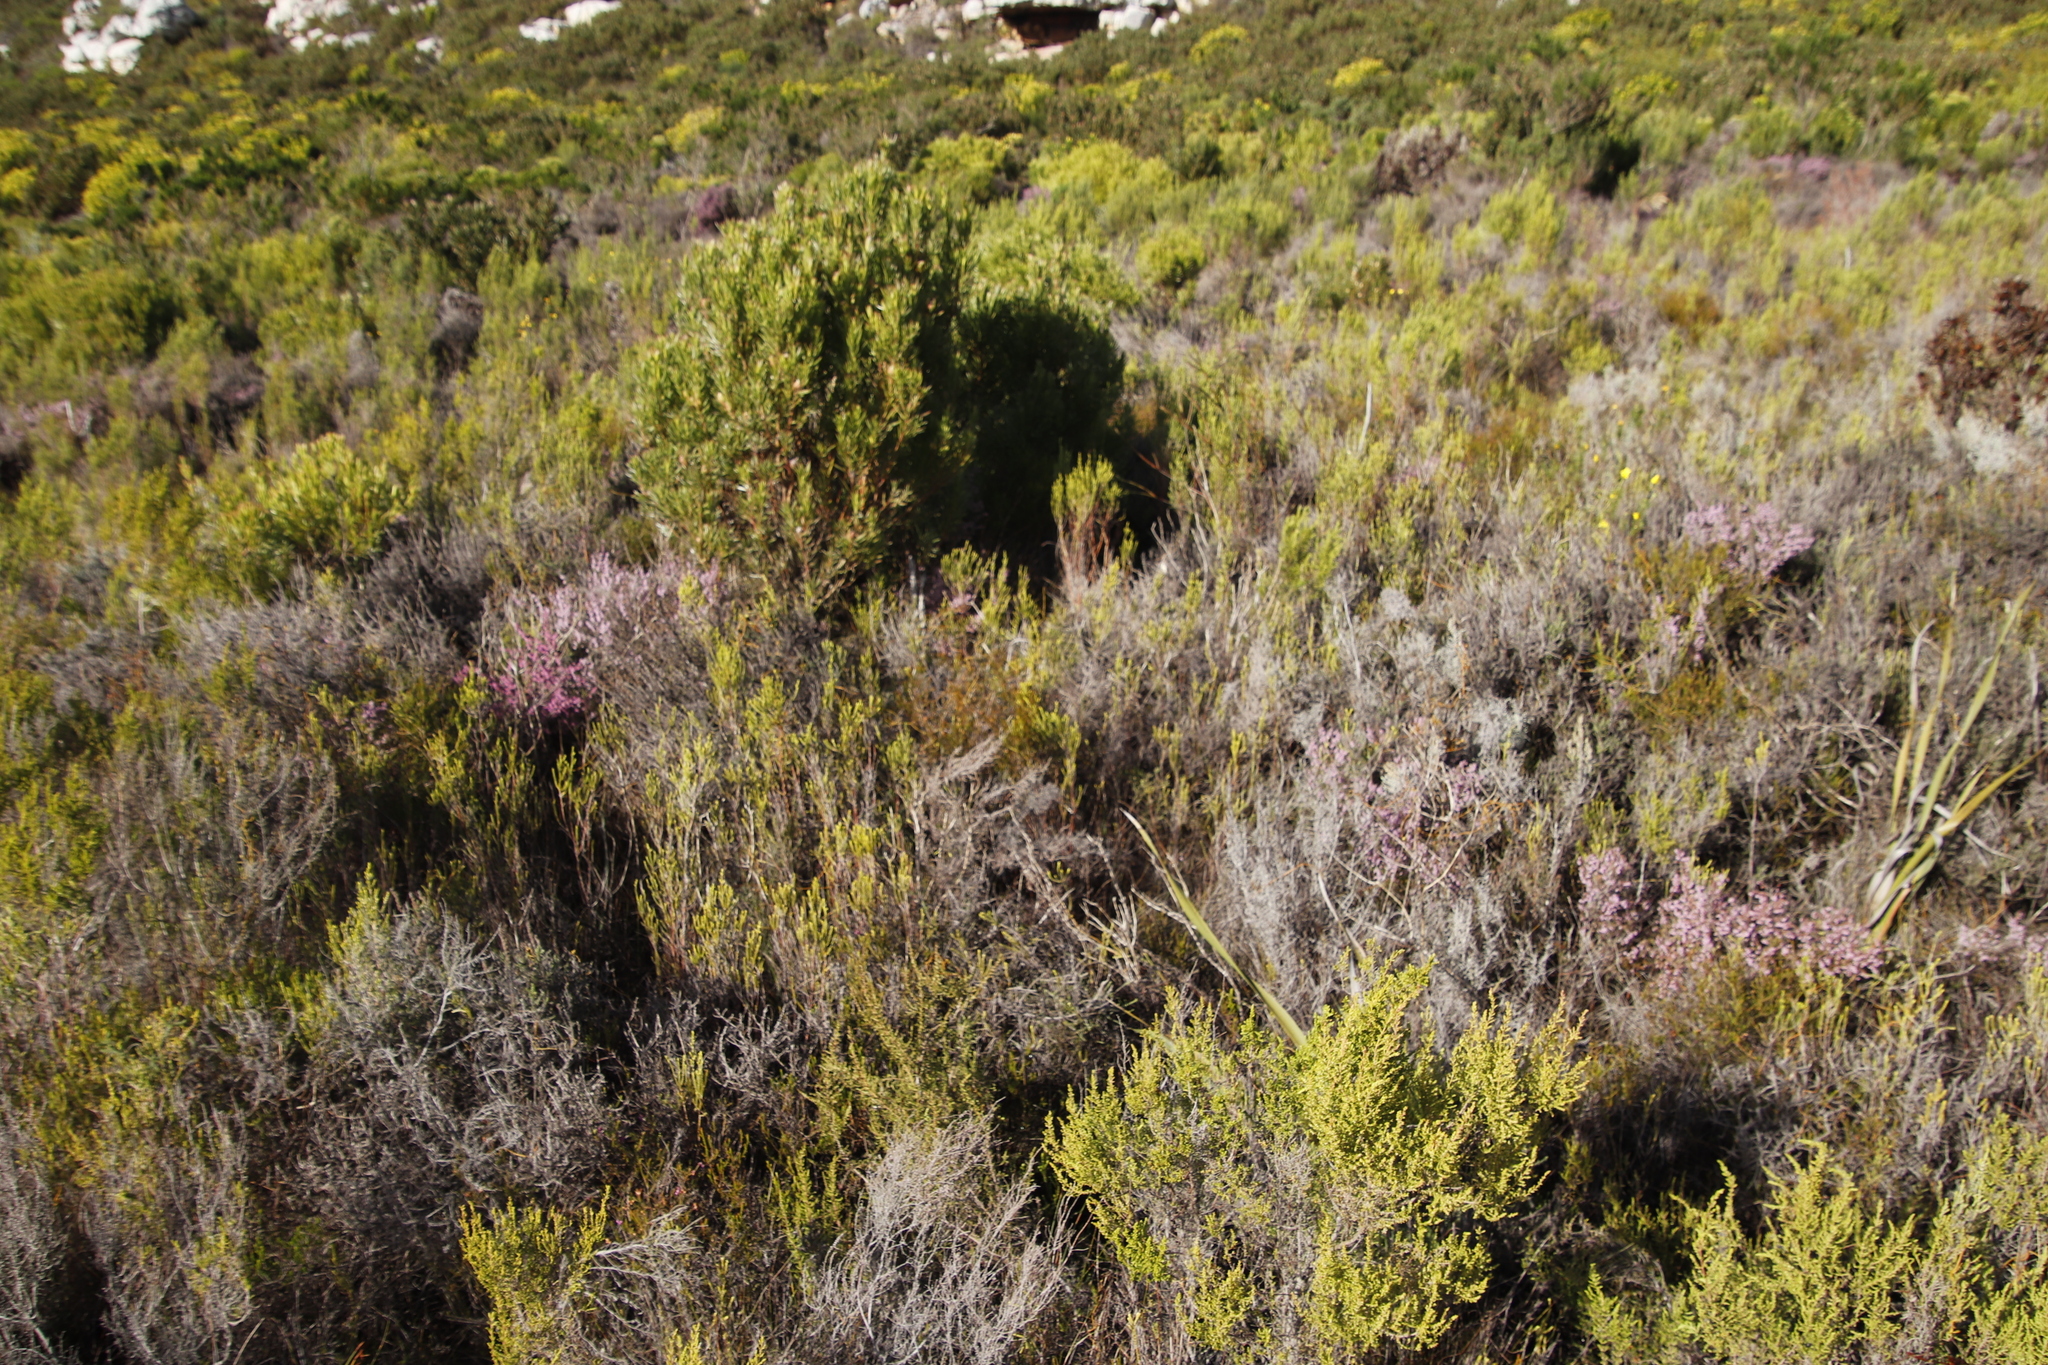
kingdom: Plantae
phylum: Tracheophyta
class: Magnoliopsida
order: Ericales
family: Ericaceae
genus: Erica
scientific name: Erica parviflora
